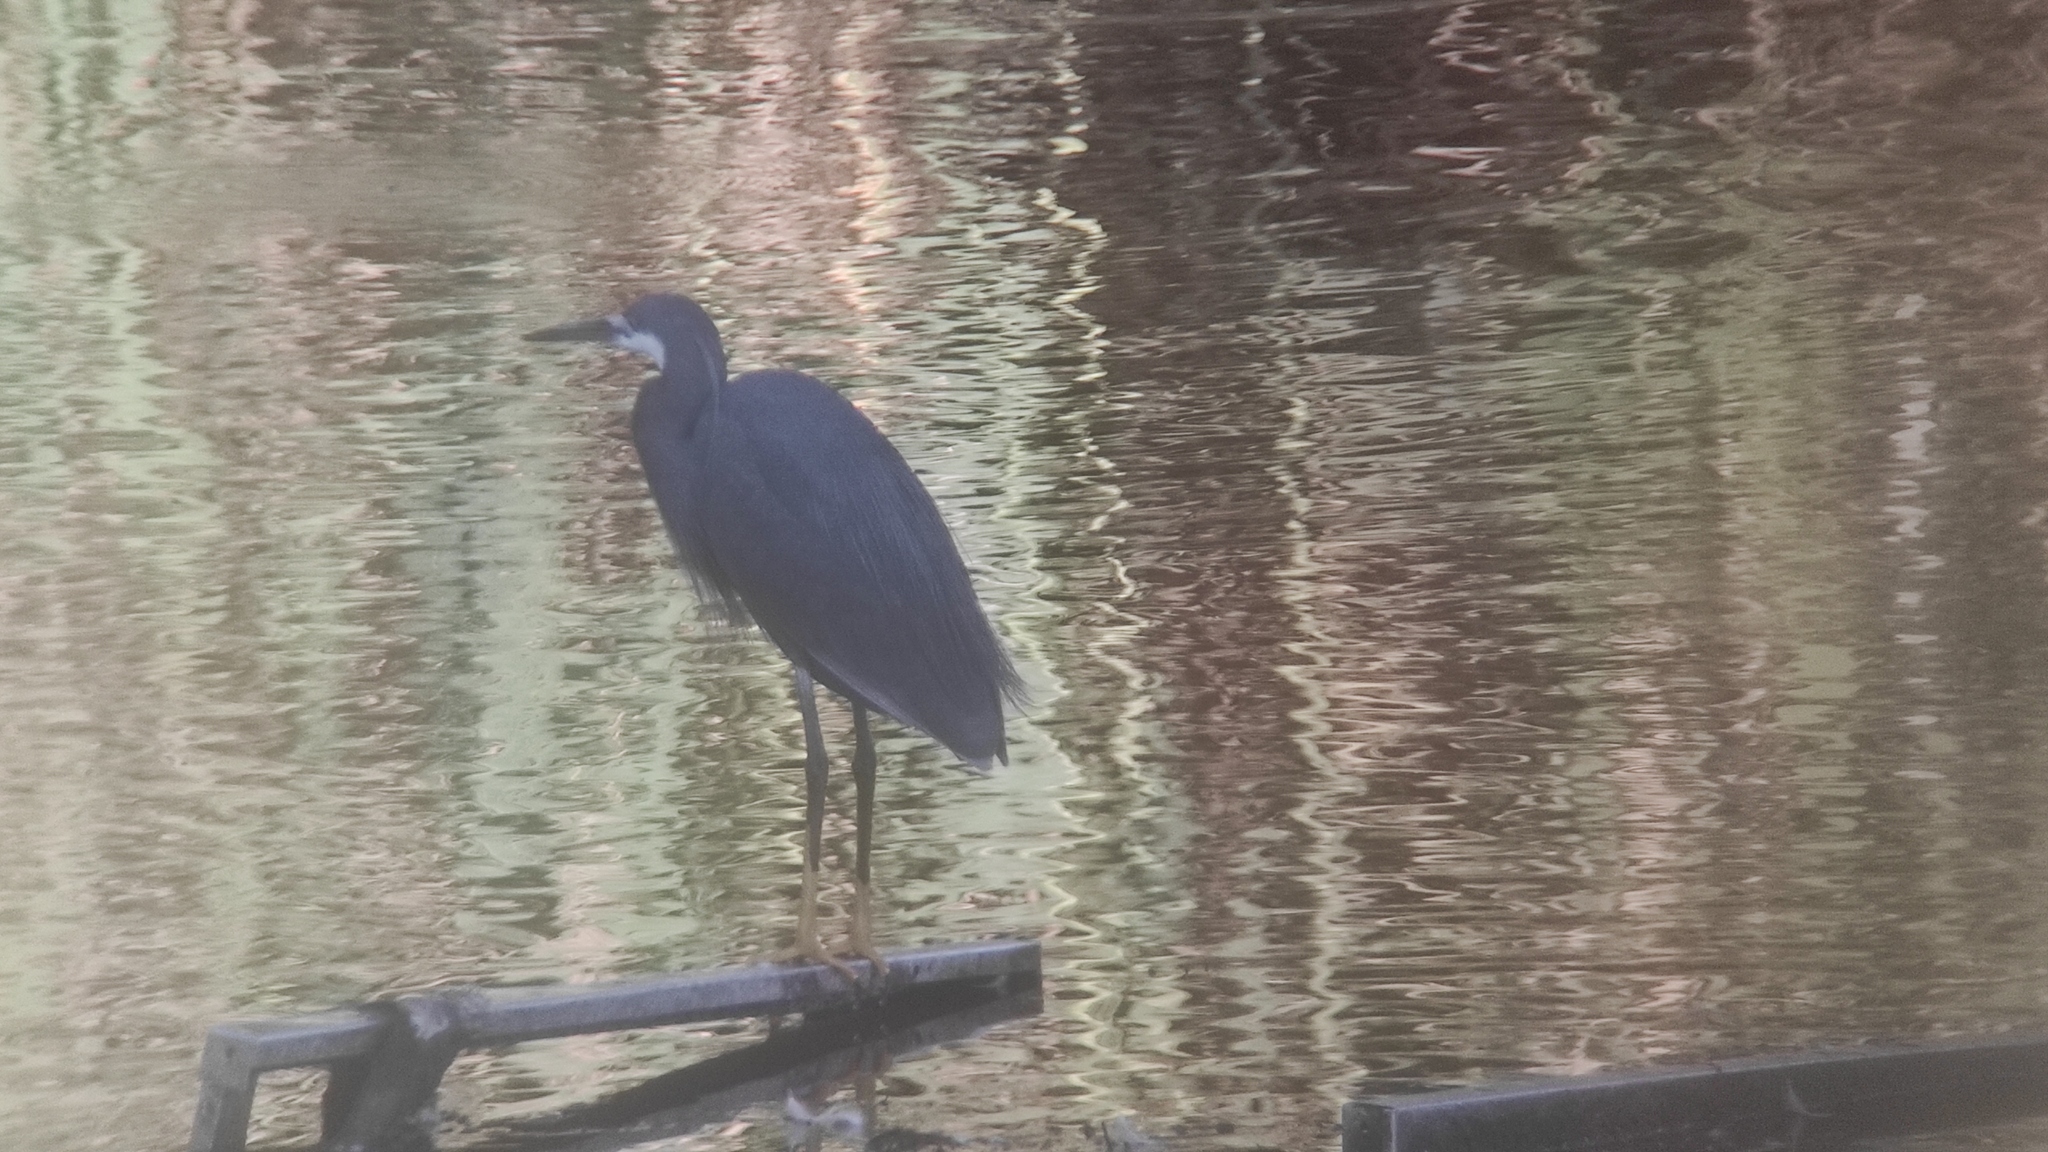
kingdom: Animalia
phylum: Chordata
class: Aves
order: Pelecaniformes
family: Ardeidae
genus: Egretta
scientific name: Egretta gularis
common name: Western reef-heron
